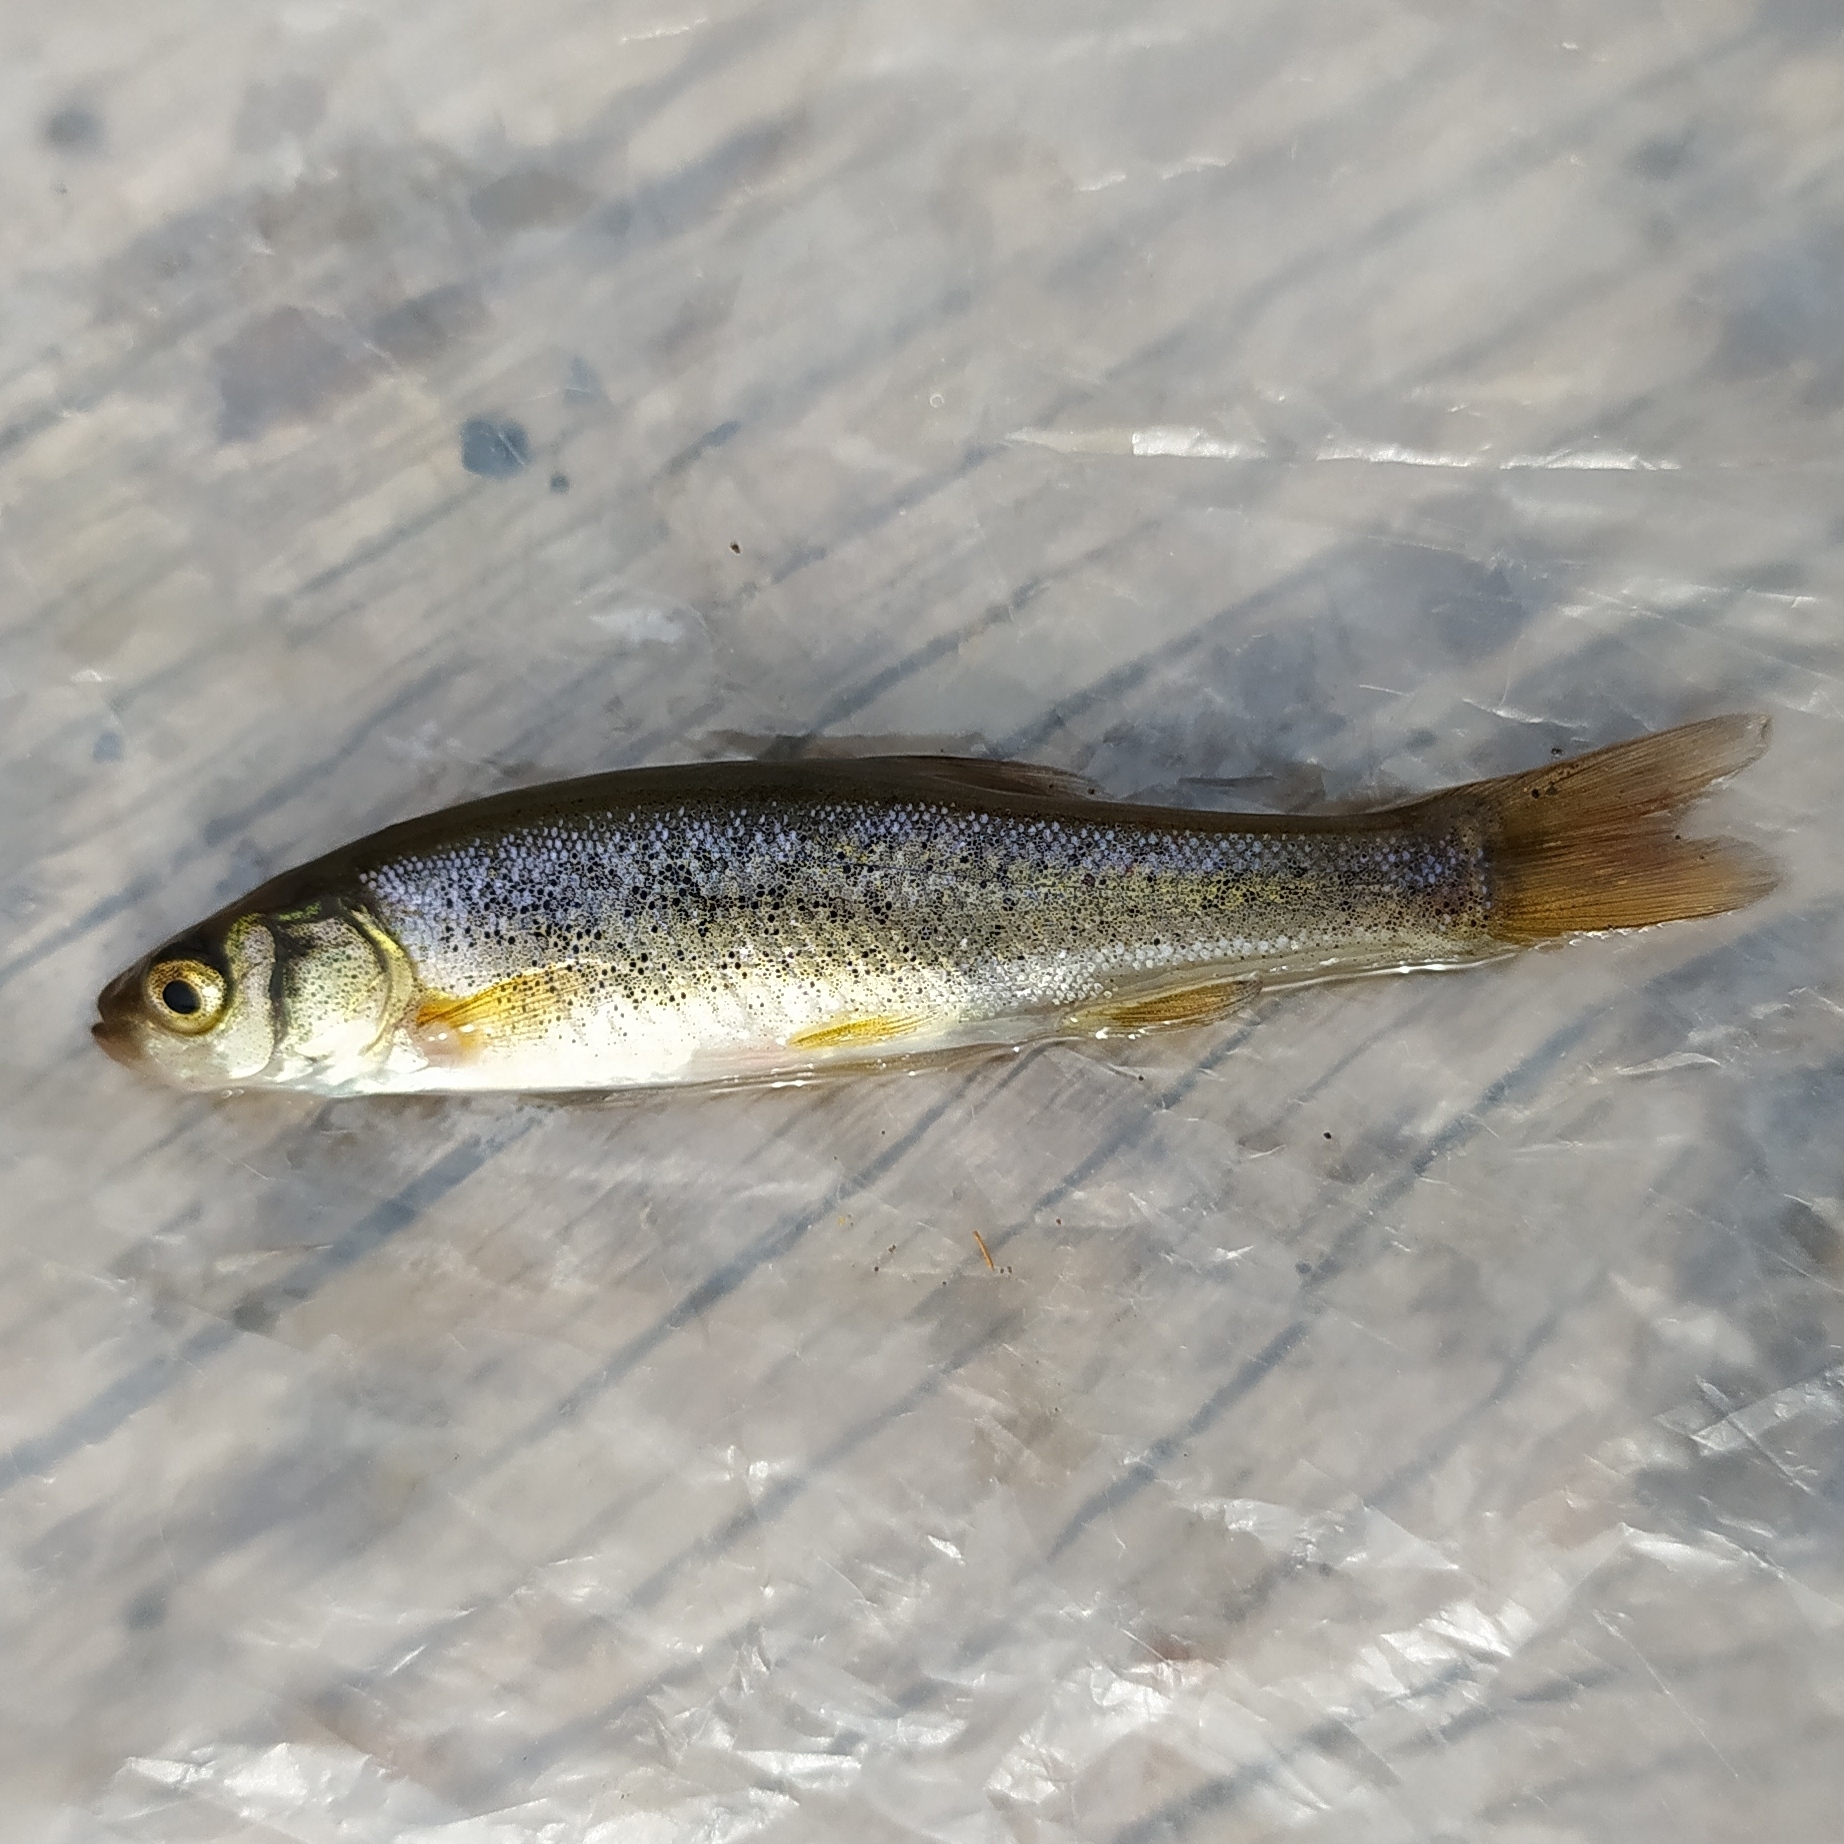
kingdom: Animalia
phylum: Chordata
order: Cypriniformes
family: Cyprinidae
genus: Rhynchocypris
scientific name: Rhynchocypris czekanowskii
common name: Czekanowski's minnow
